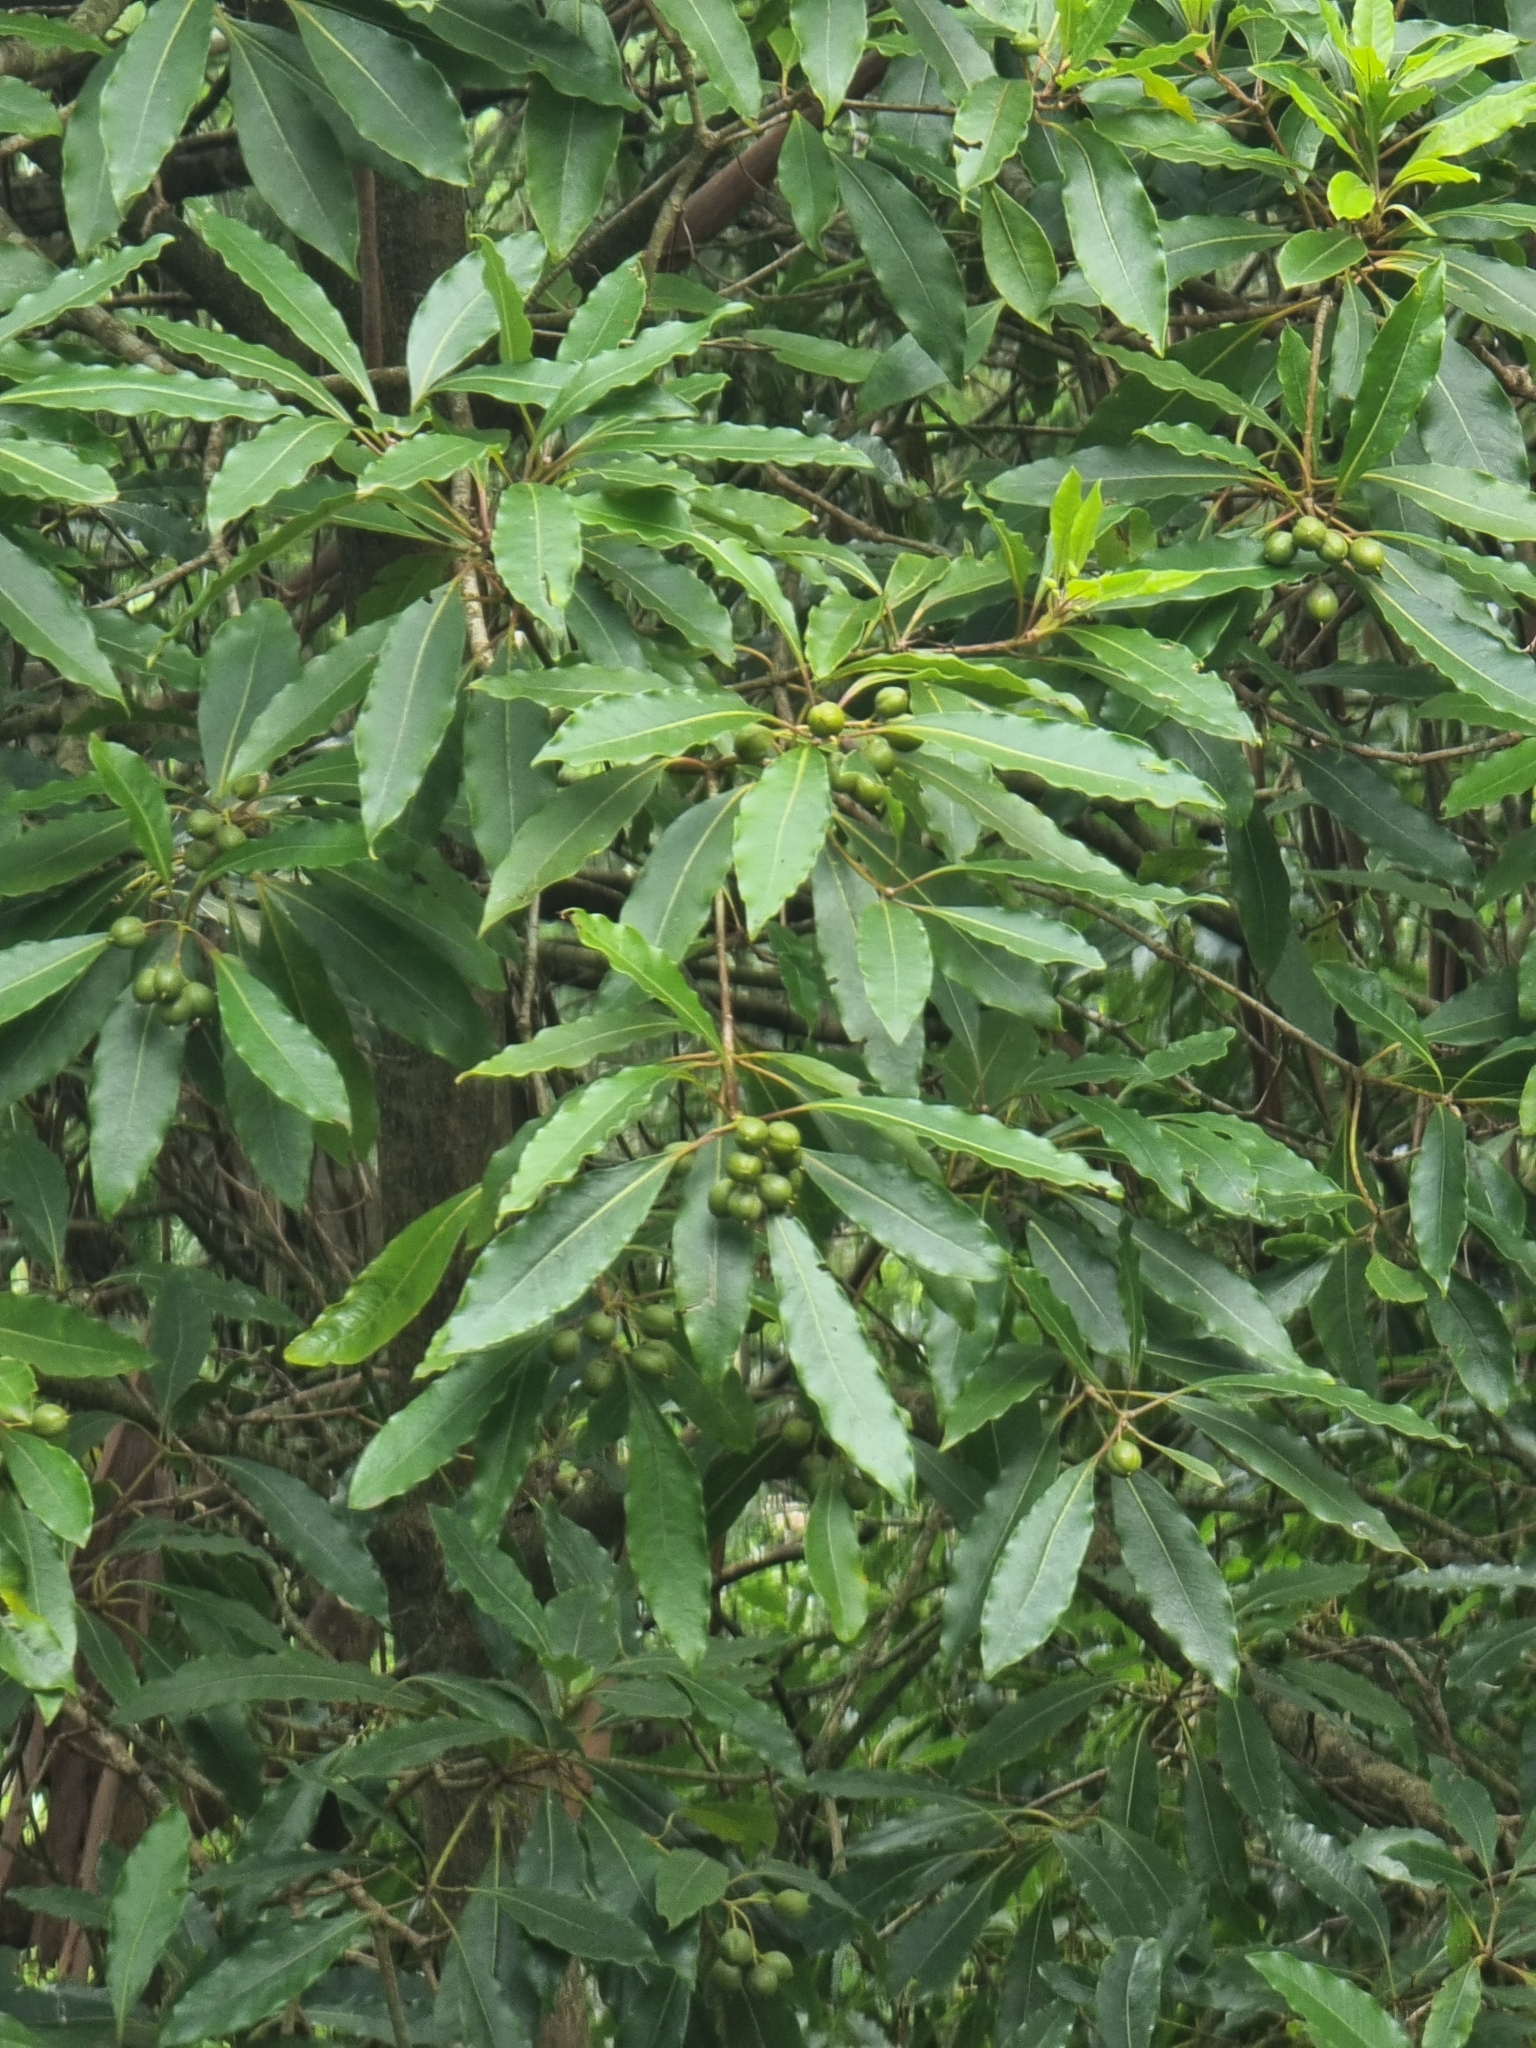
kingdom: Plantae
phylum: Tracheophyta
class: Magnoliopsida
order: Apiales
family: Pittosporaceae
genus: Pittosporum
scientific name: Pittosporum undulatum
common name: Australian cheesewood
